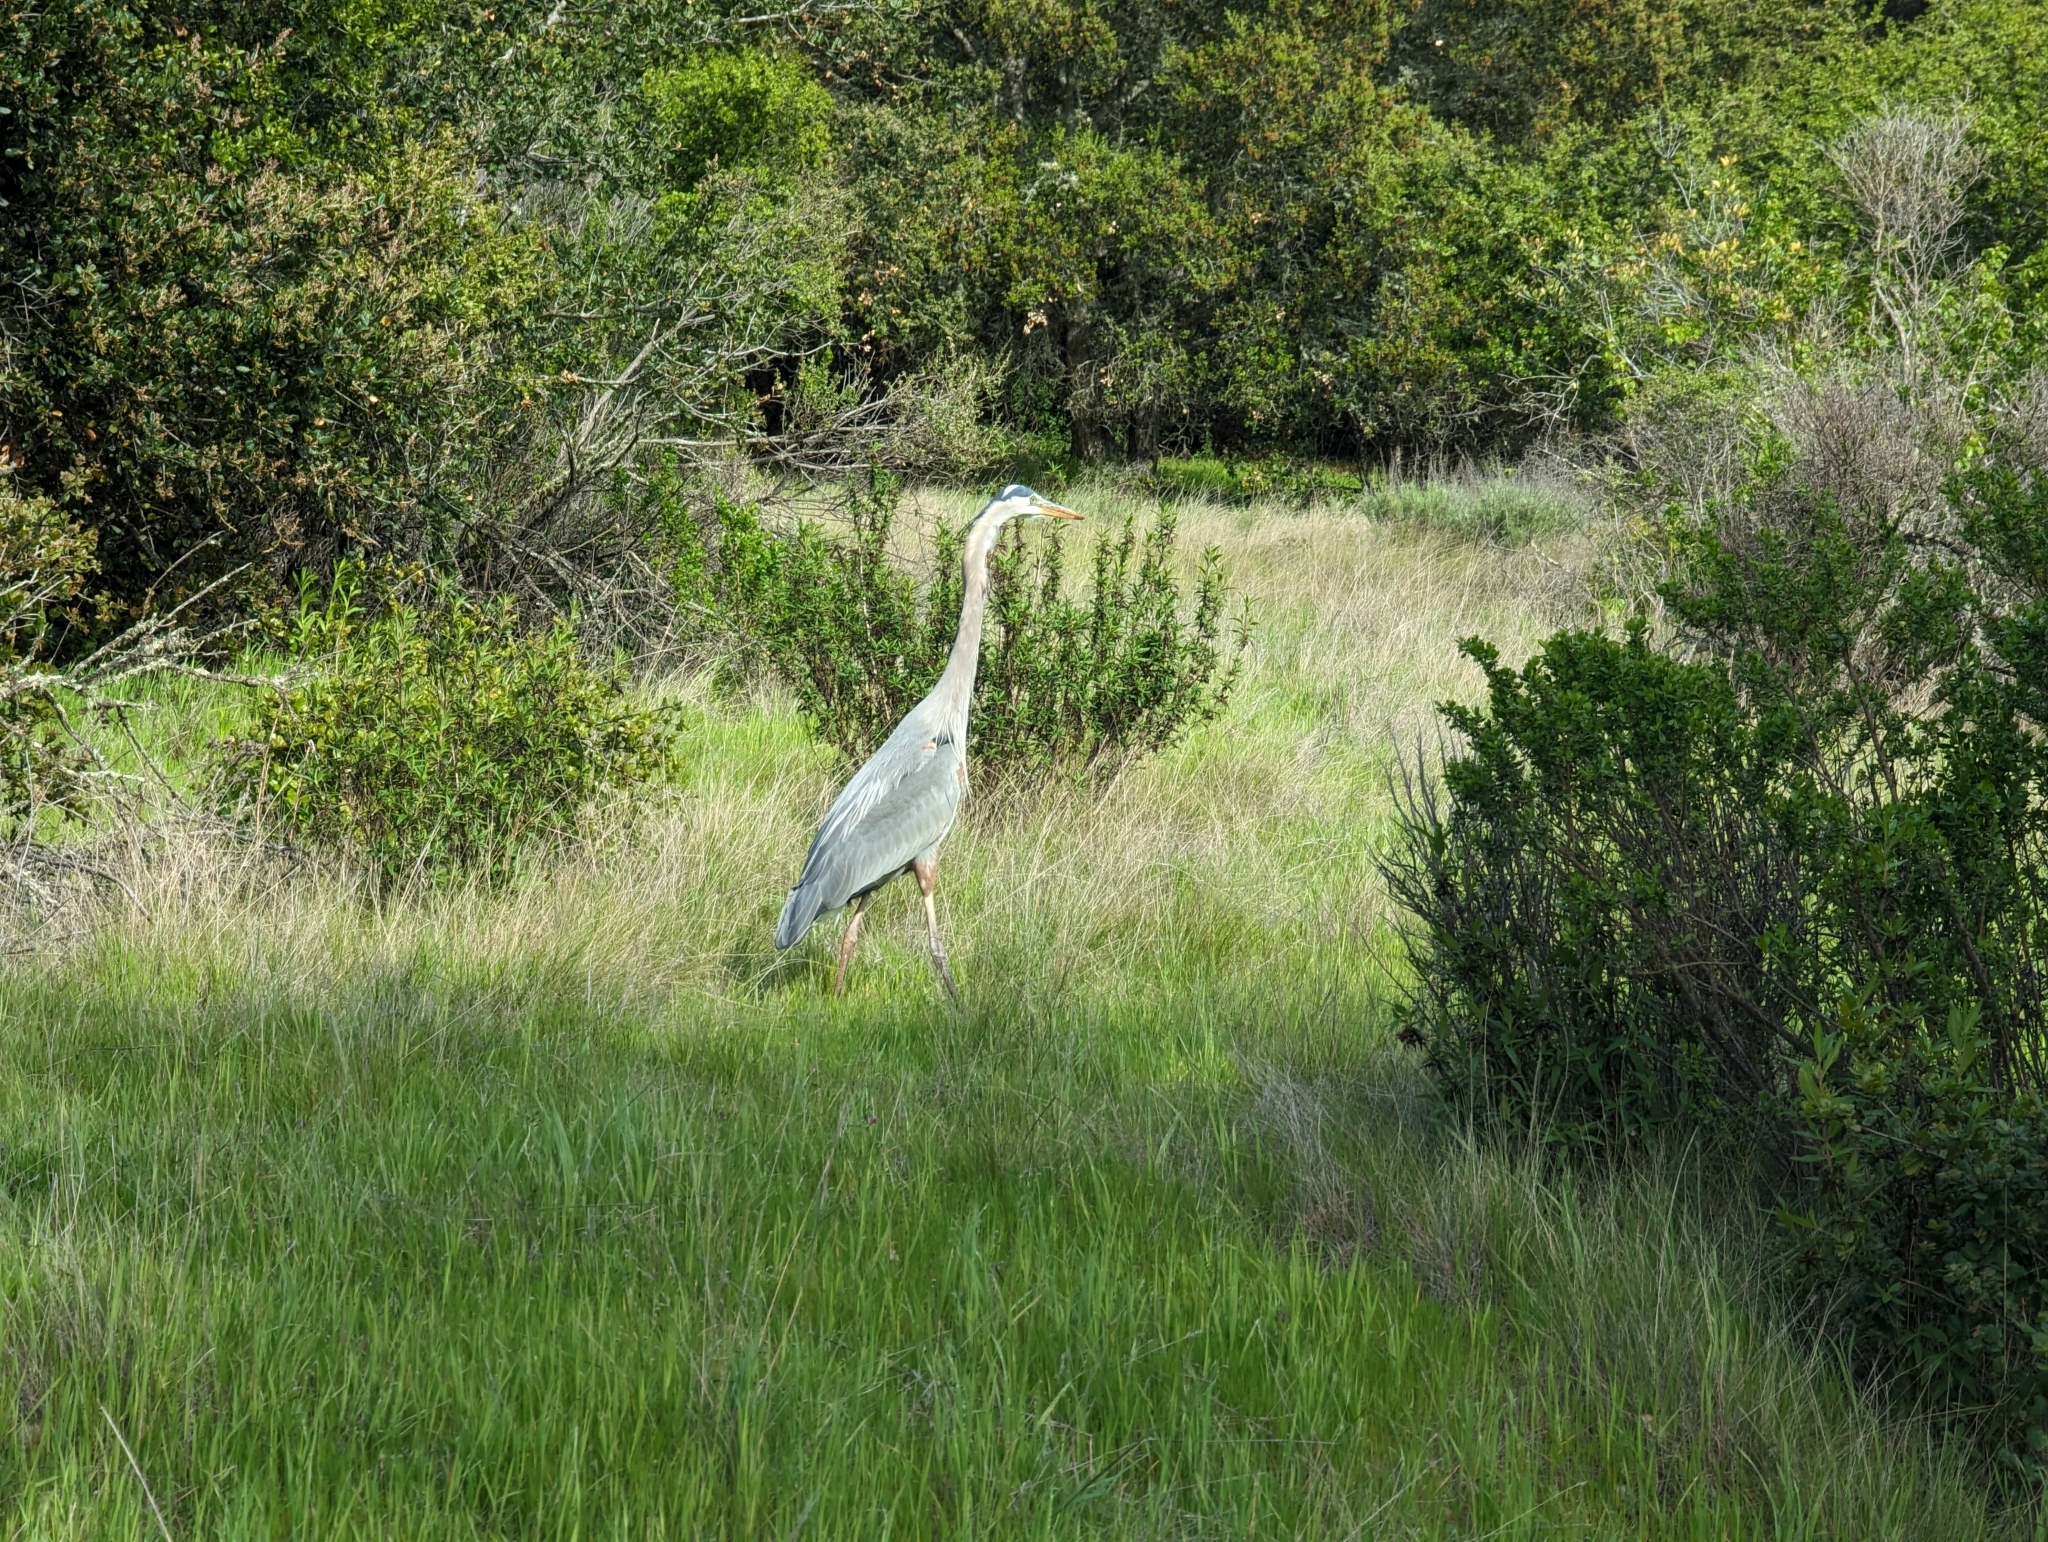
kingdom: Animalia
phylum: Chordata
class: Aves
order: Pelecaniformes
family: Ardeidae
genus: Ardea
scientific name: Ardea herodias
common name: Great blue heron
